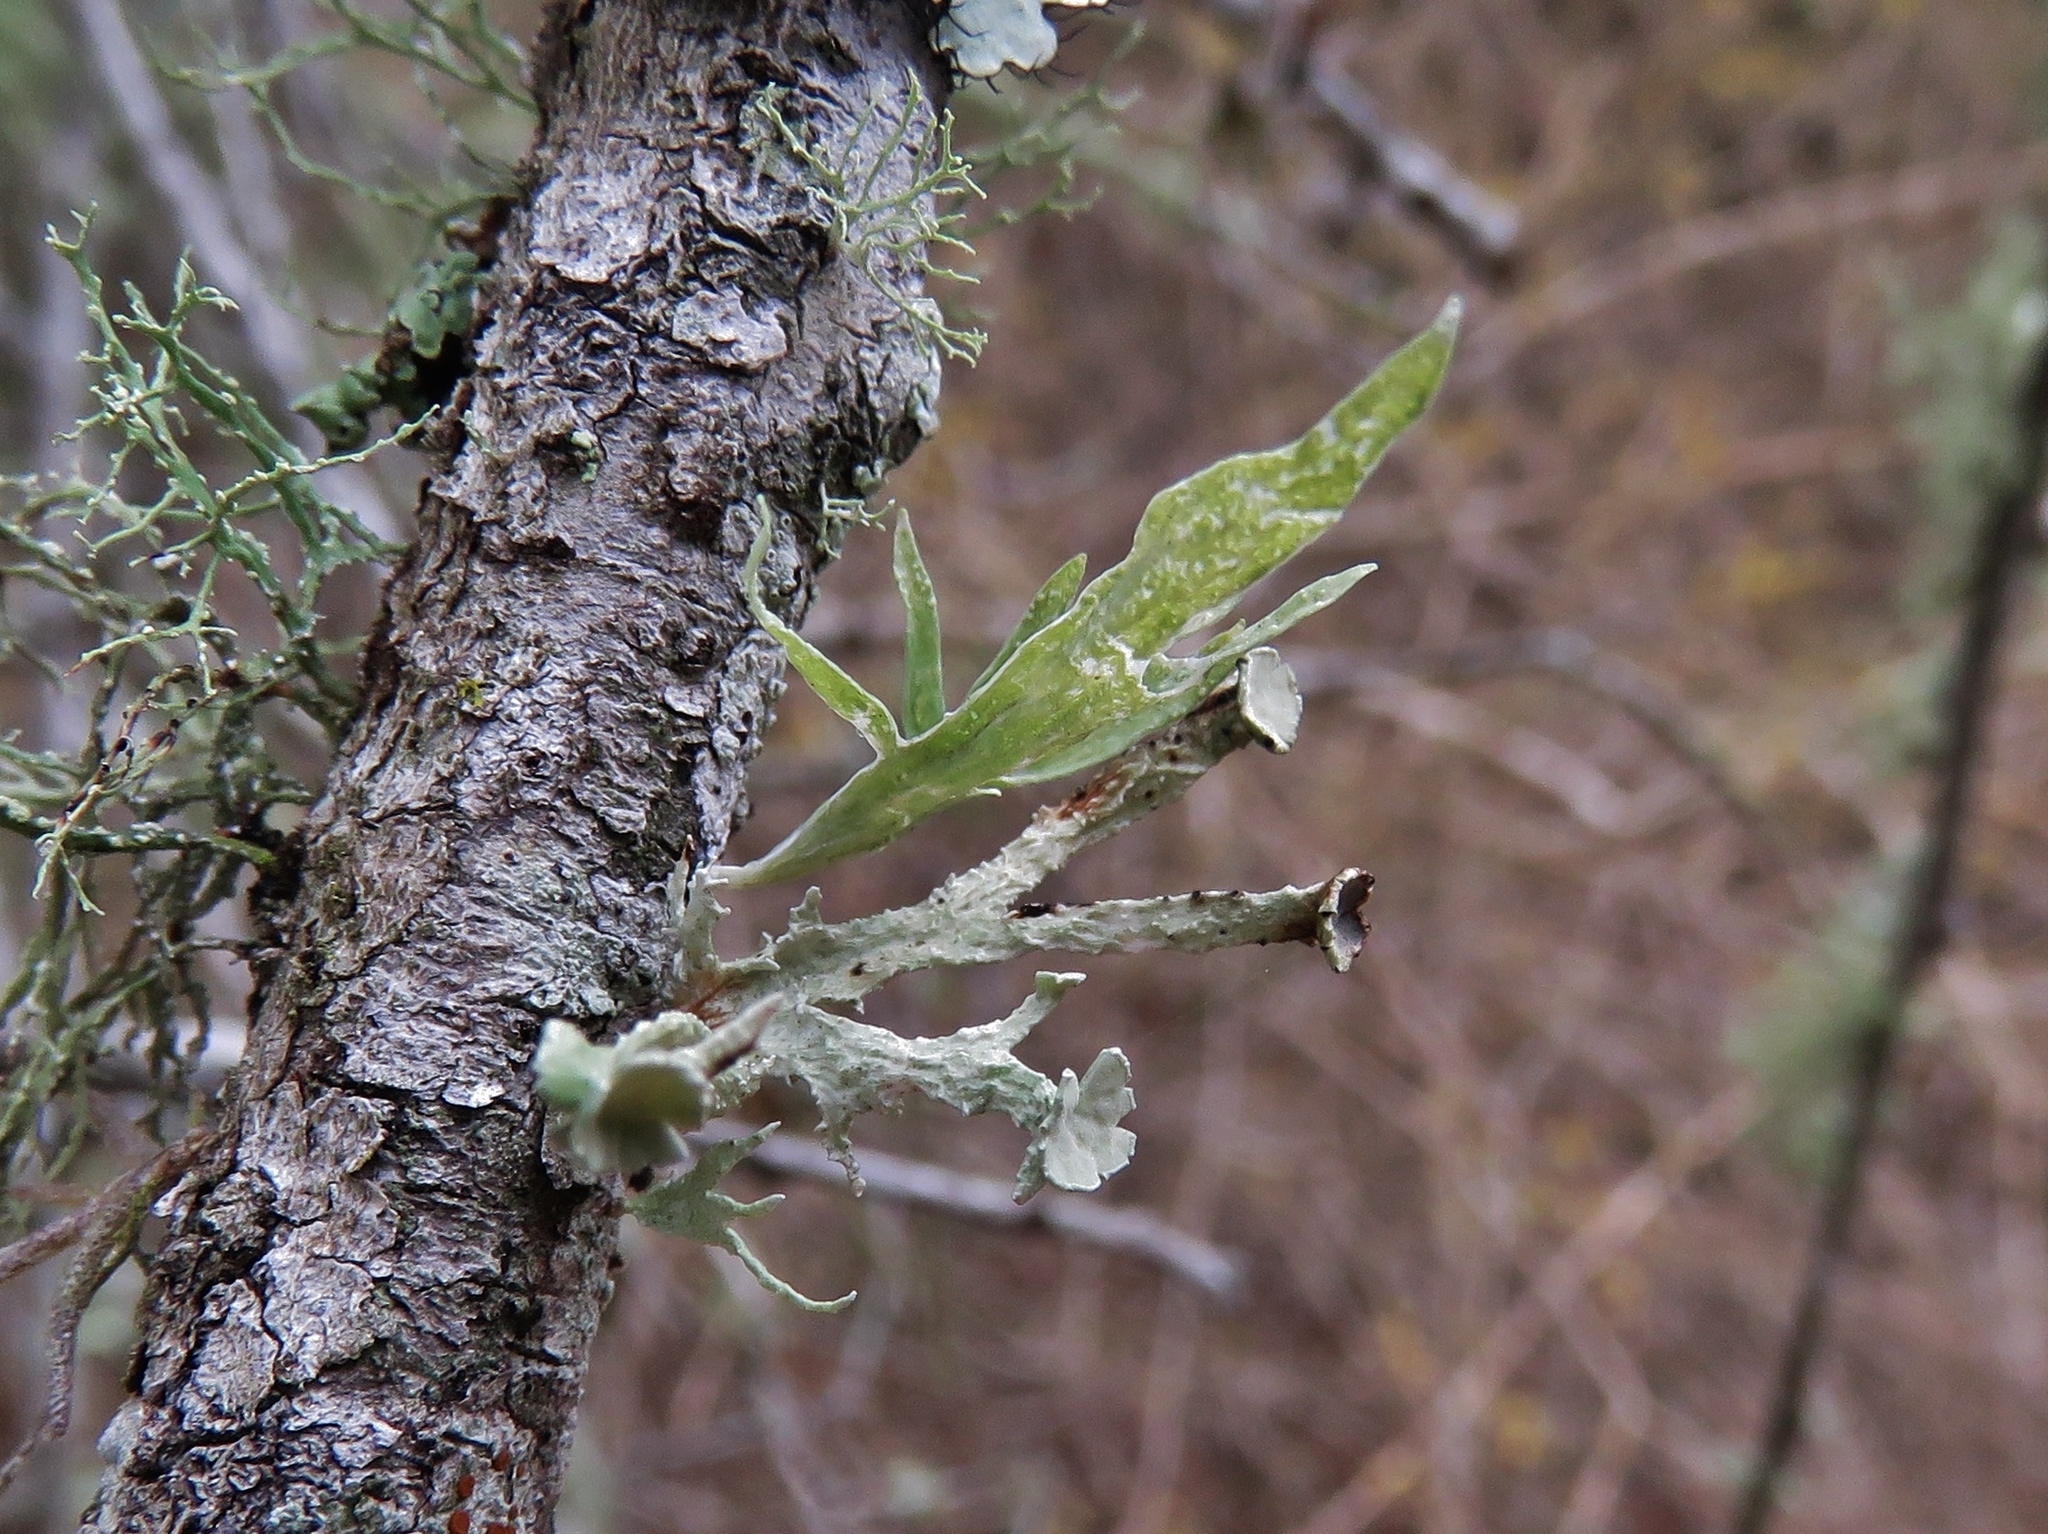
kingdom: Fungi
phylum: Ascomycota
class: Lecanoromycetes
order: Lecanorales
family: Ramalinaceae
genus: Ramalina
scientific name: Ramalina complanata
